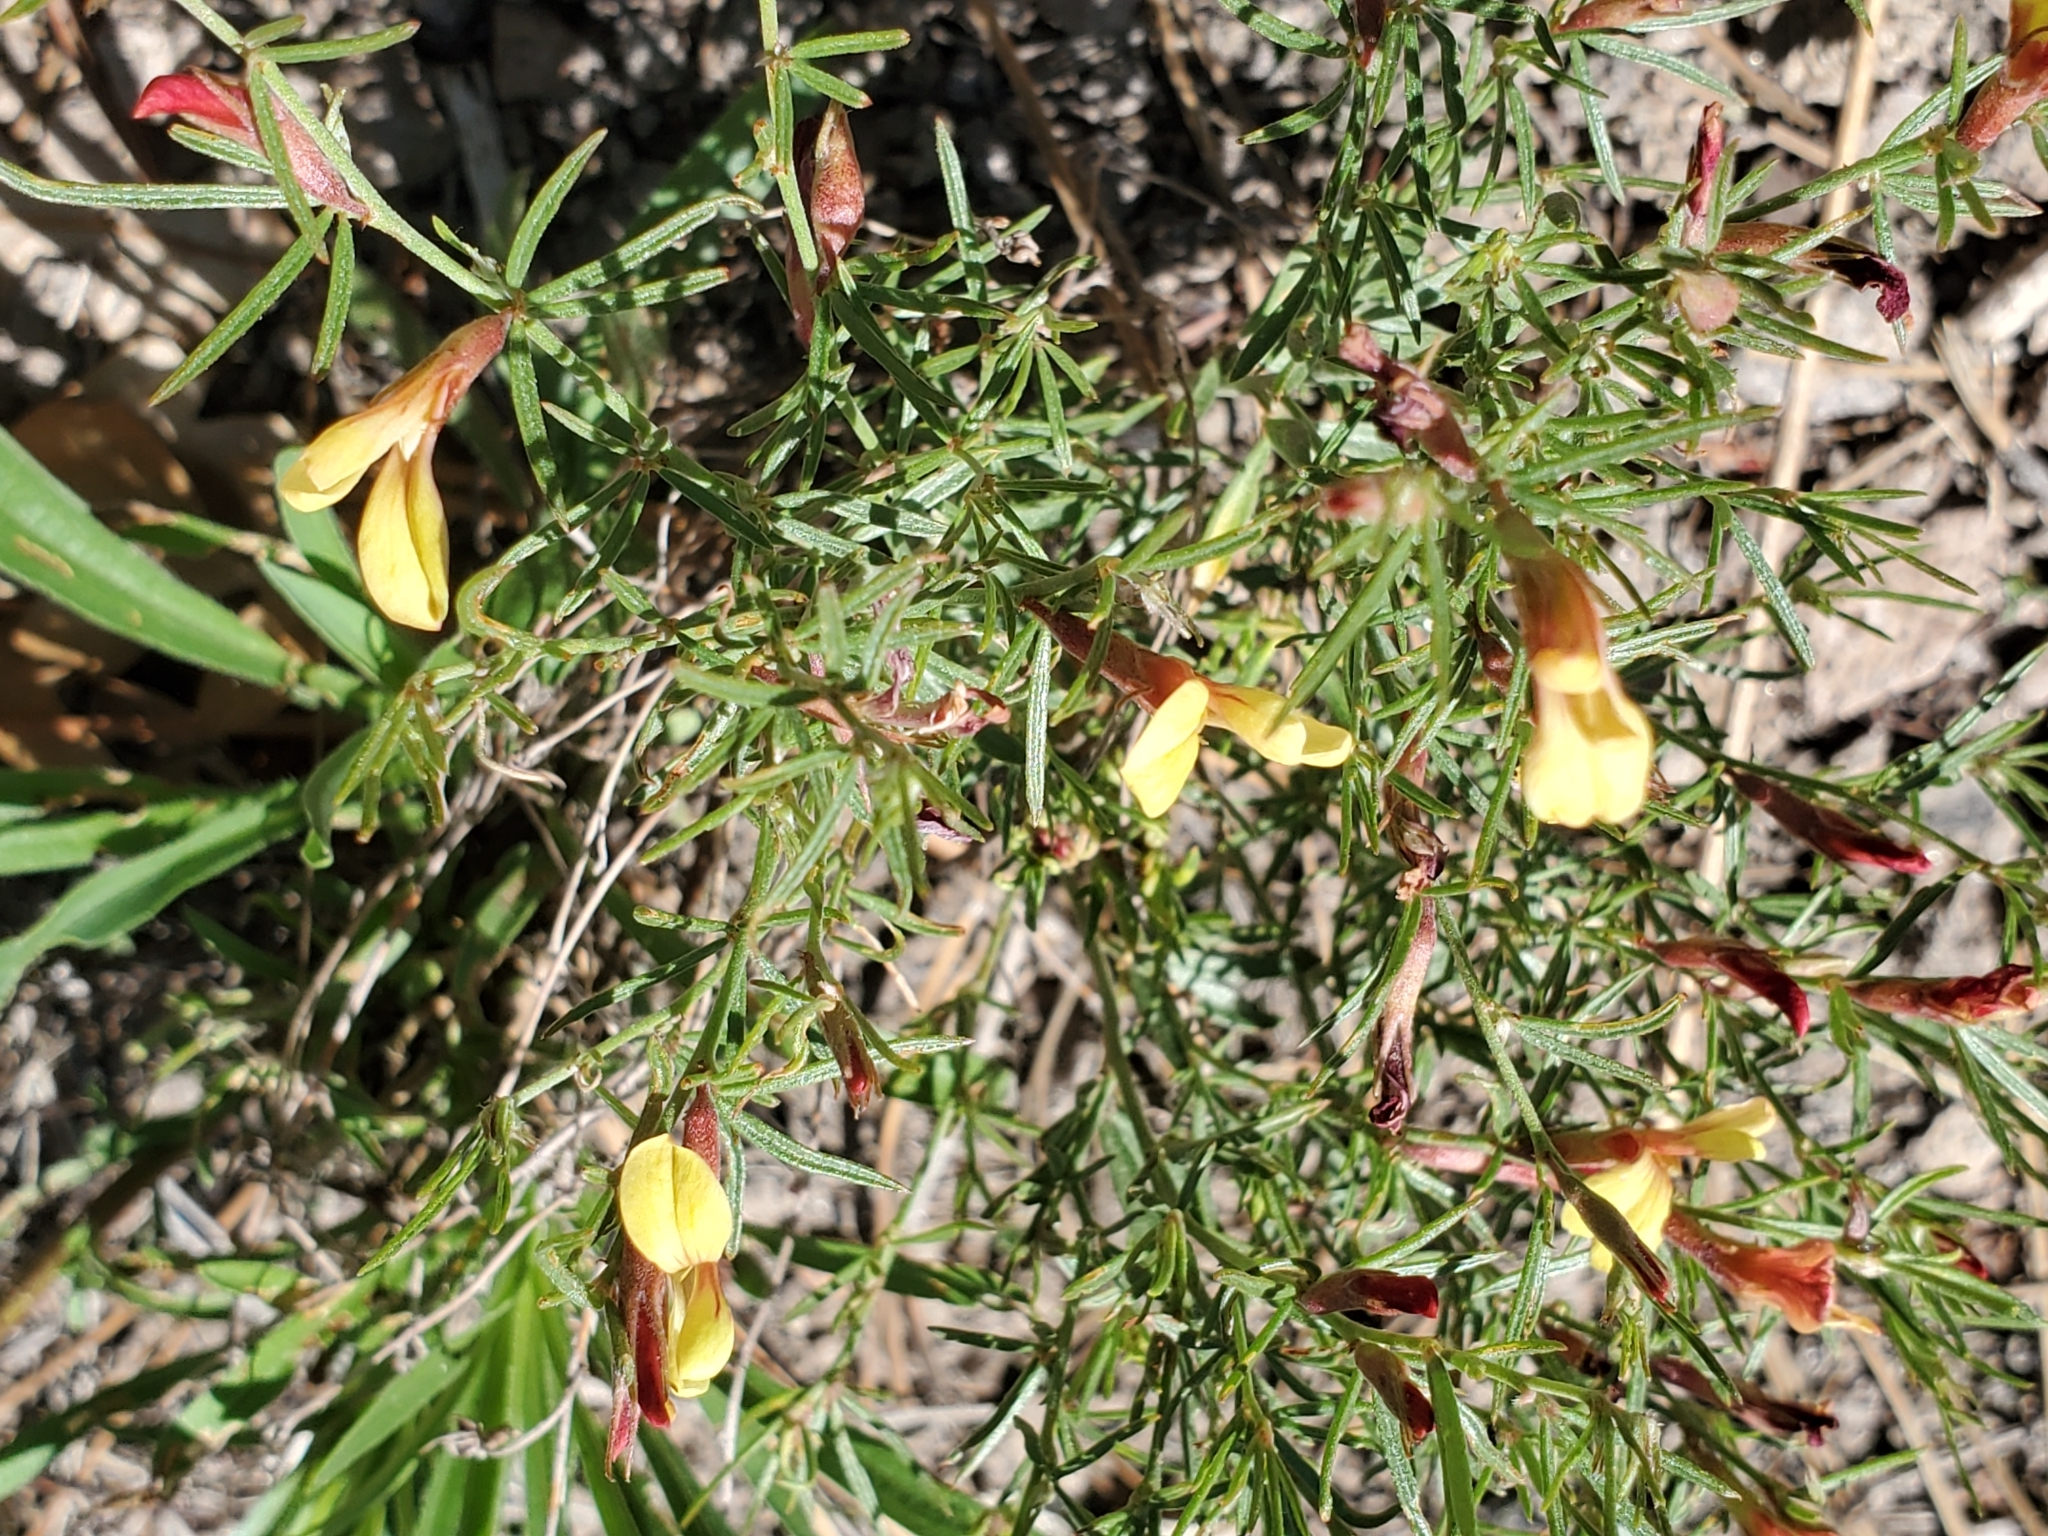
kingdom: Plantae
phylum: Tracheophyta
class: Magnoliopsida
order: Fabales
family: Fabaceae
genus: Acmispon
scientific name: Acmispon wrightii
